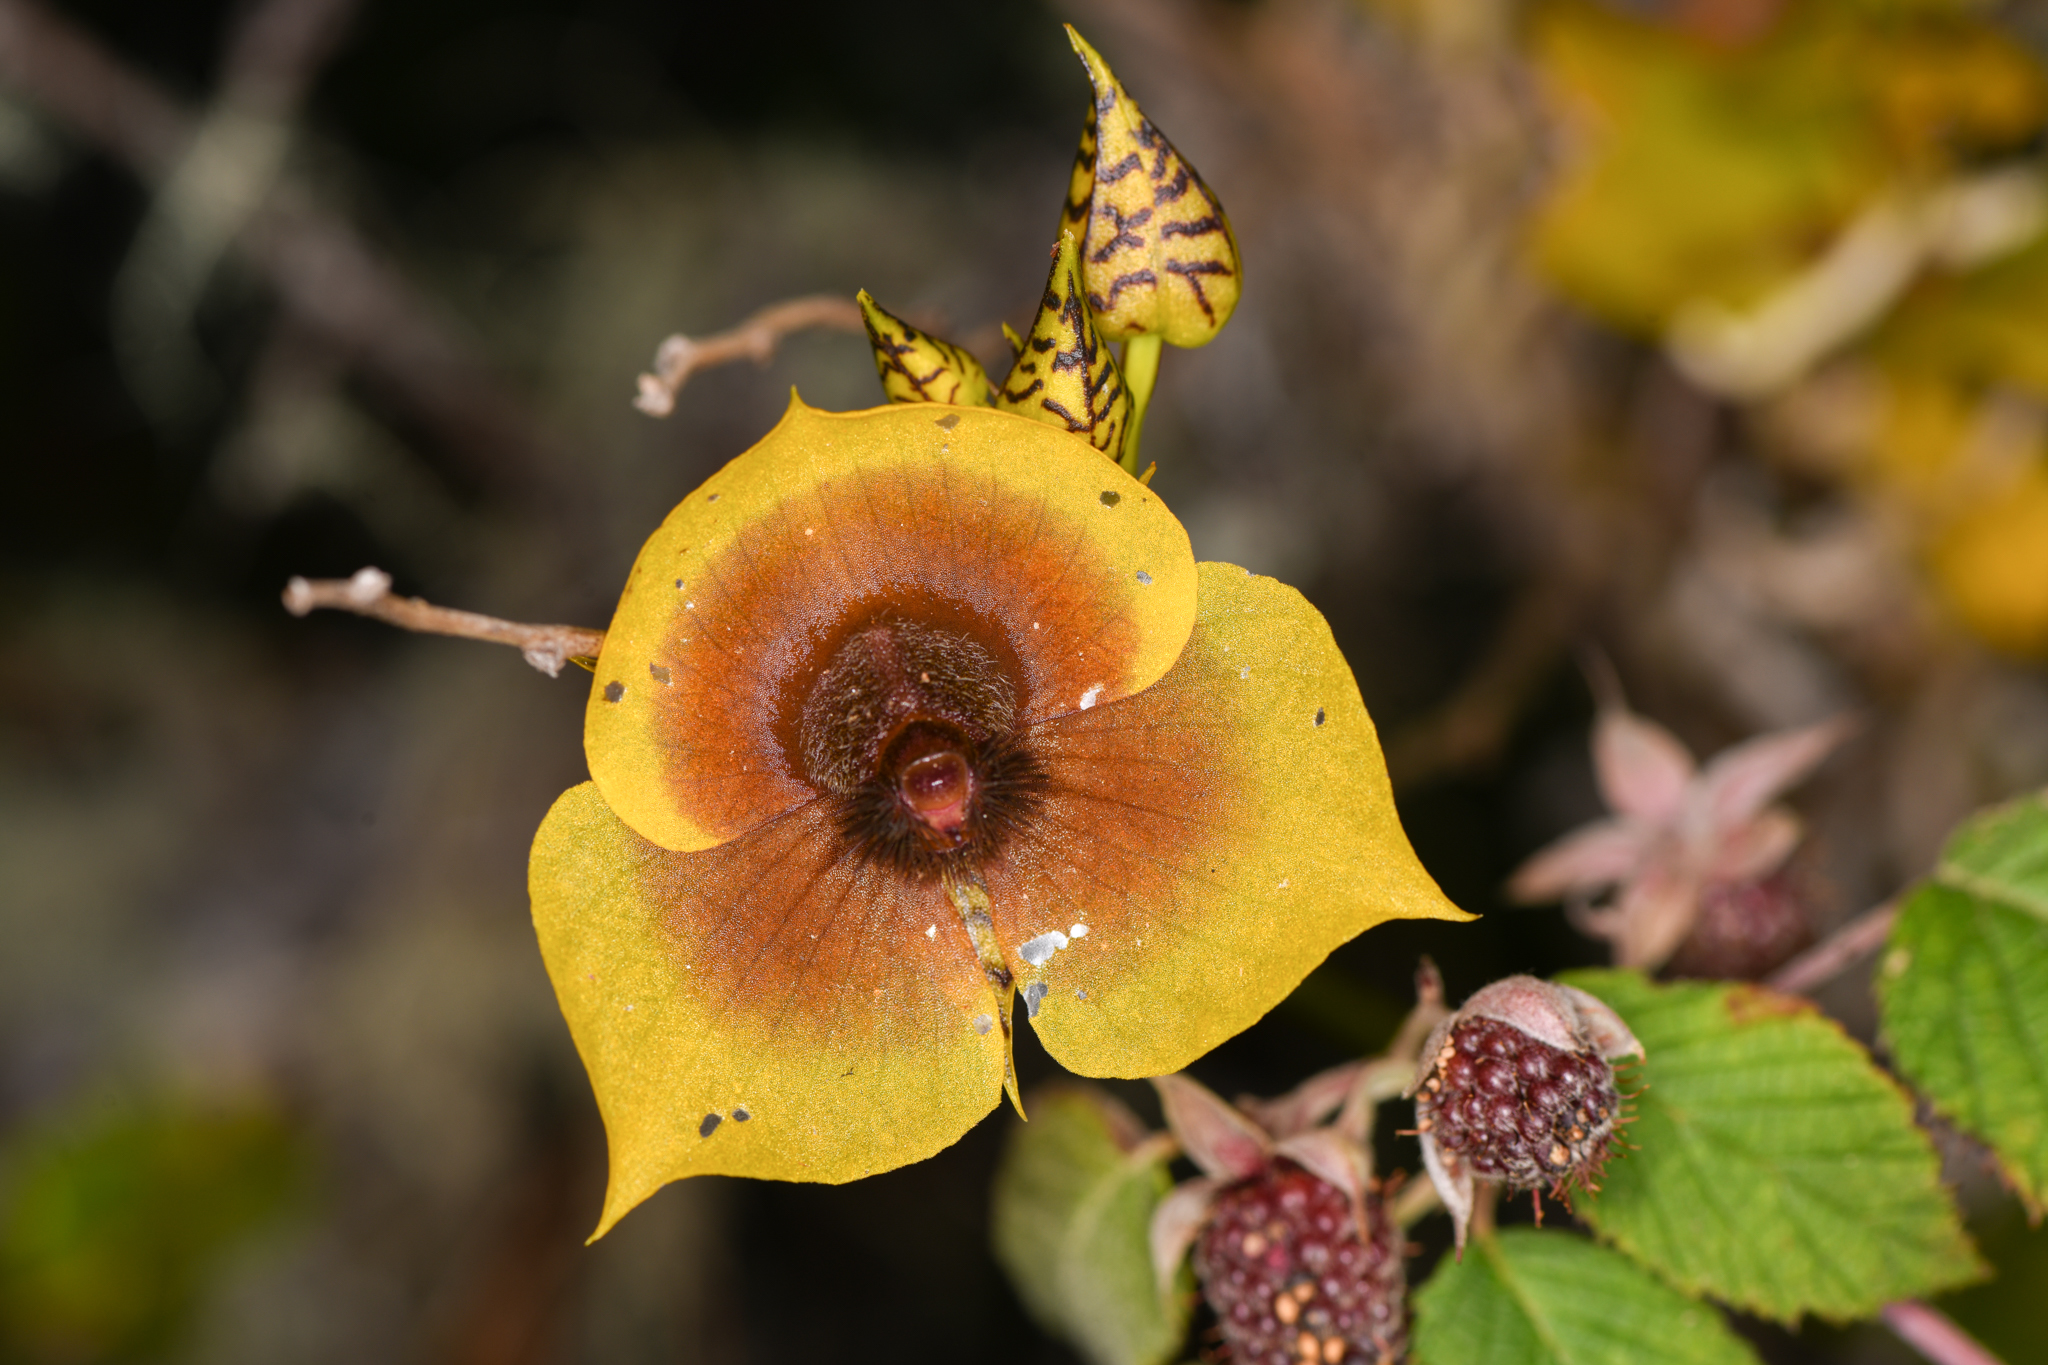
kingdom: Plantae
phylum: Tracheophyta
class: Liliopsida
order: Asparagales
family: Orchidaceae
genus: Telipogon
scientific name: Telipogon costaricensis
